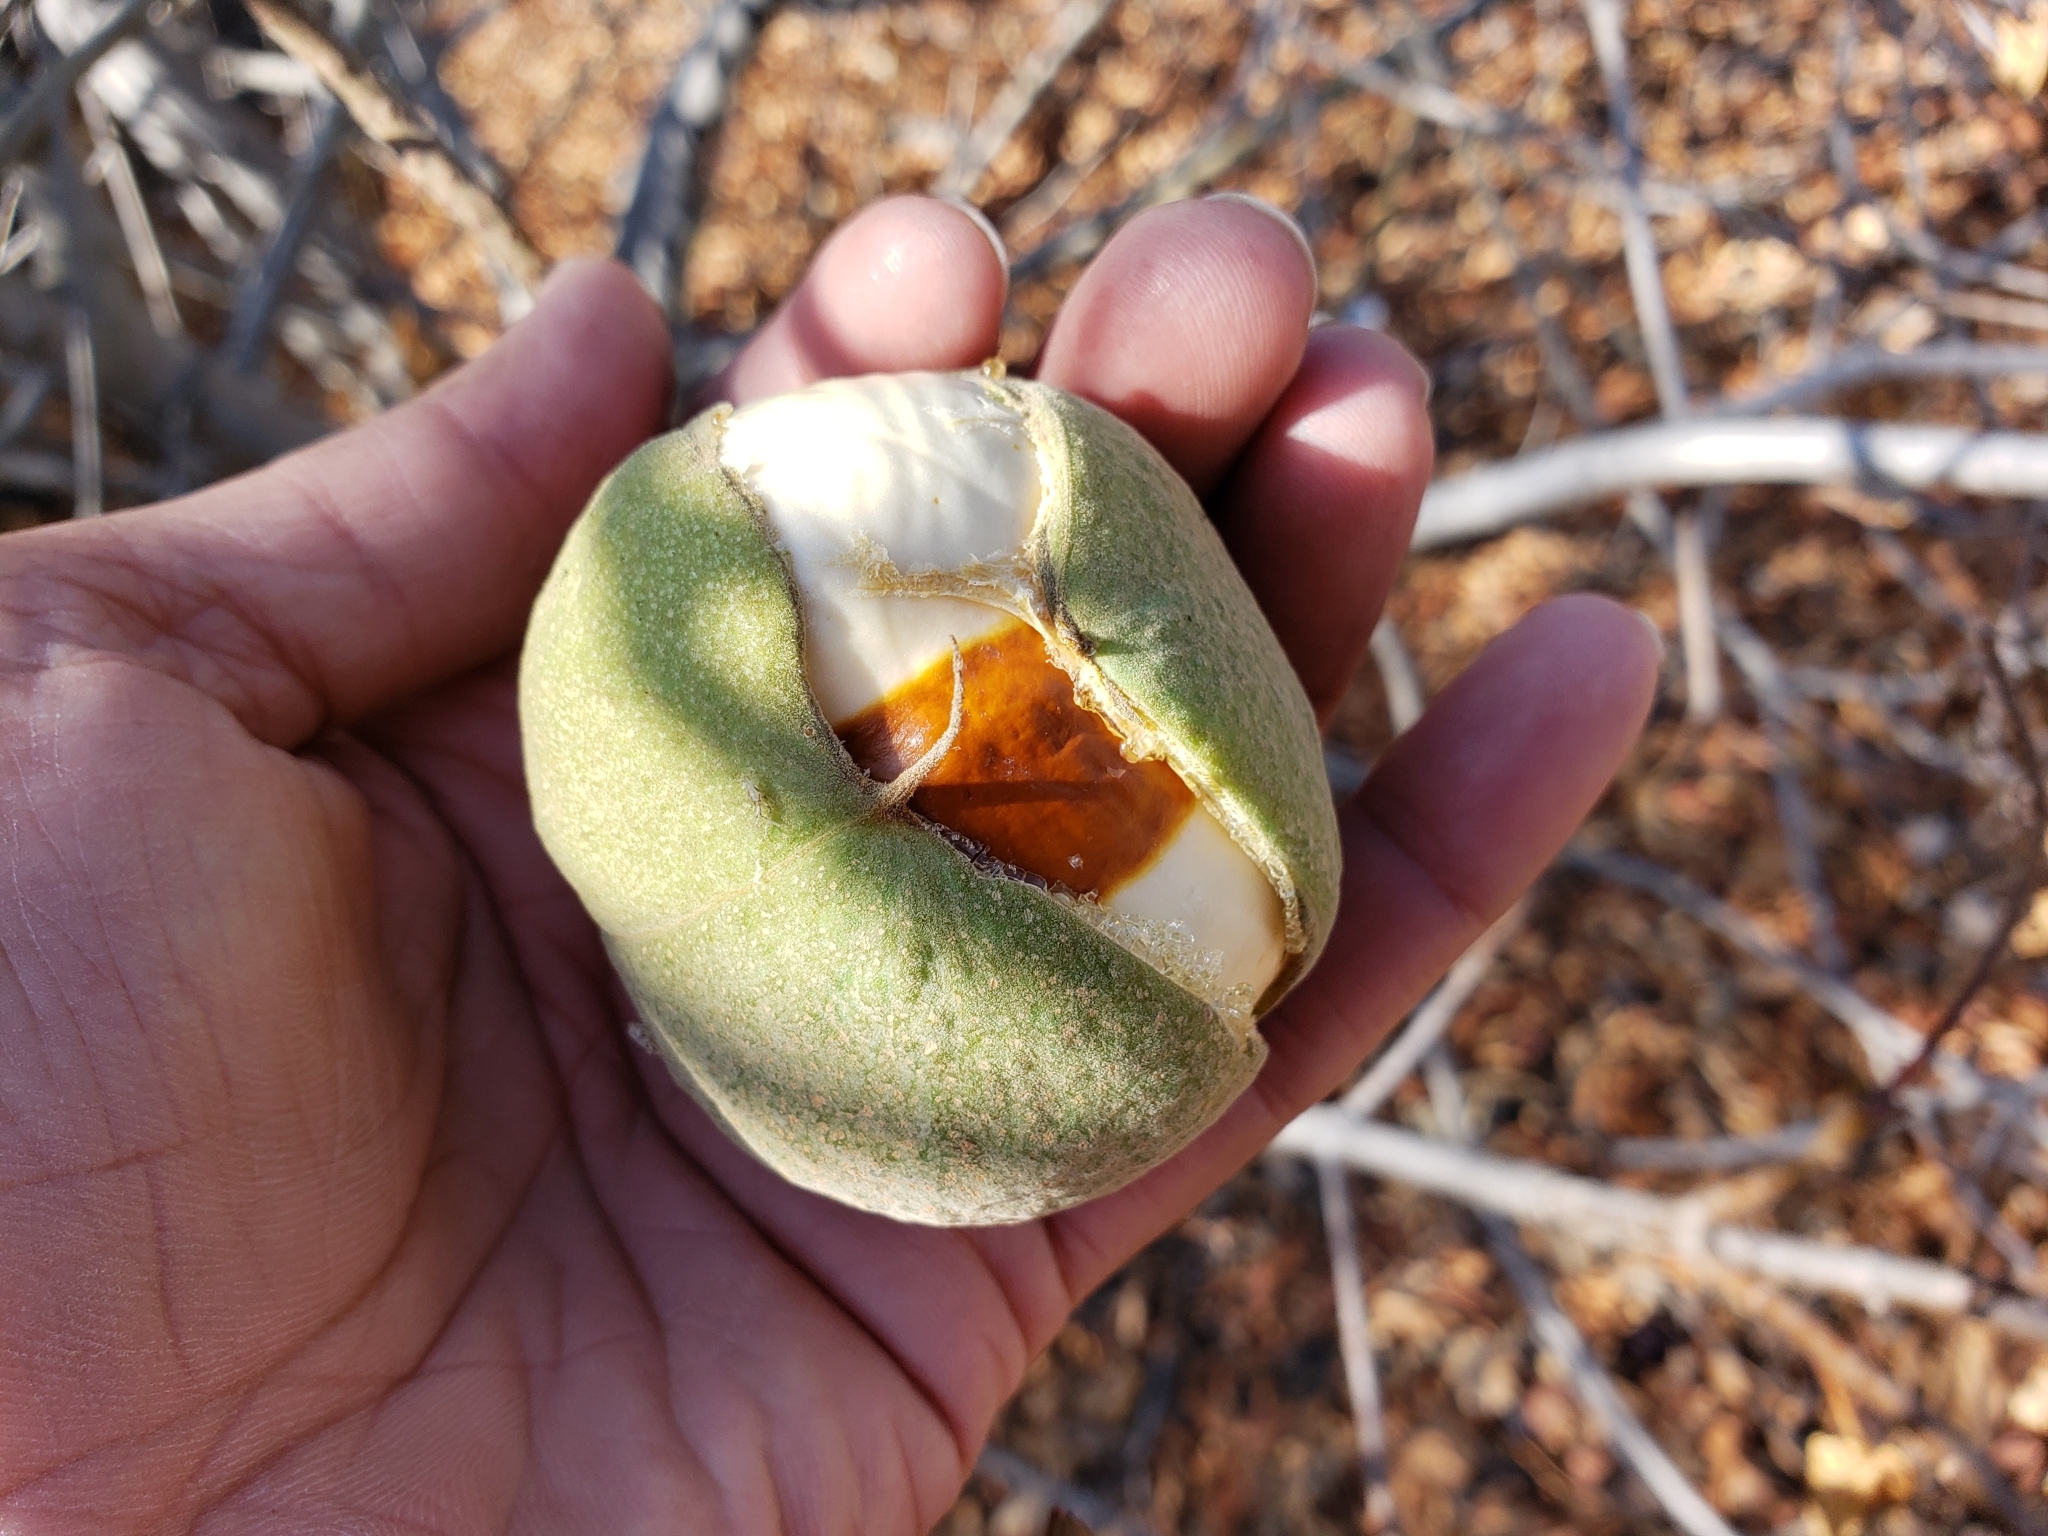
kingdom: Plantae
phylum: Tracheophyta
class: Magnoliopsida
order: Sapindales
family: Sapindaceae
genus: Aesculus
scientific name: Aesculus californica
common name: California buckeye
